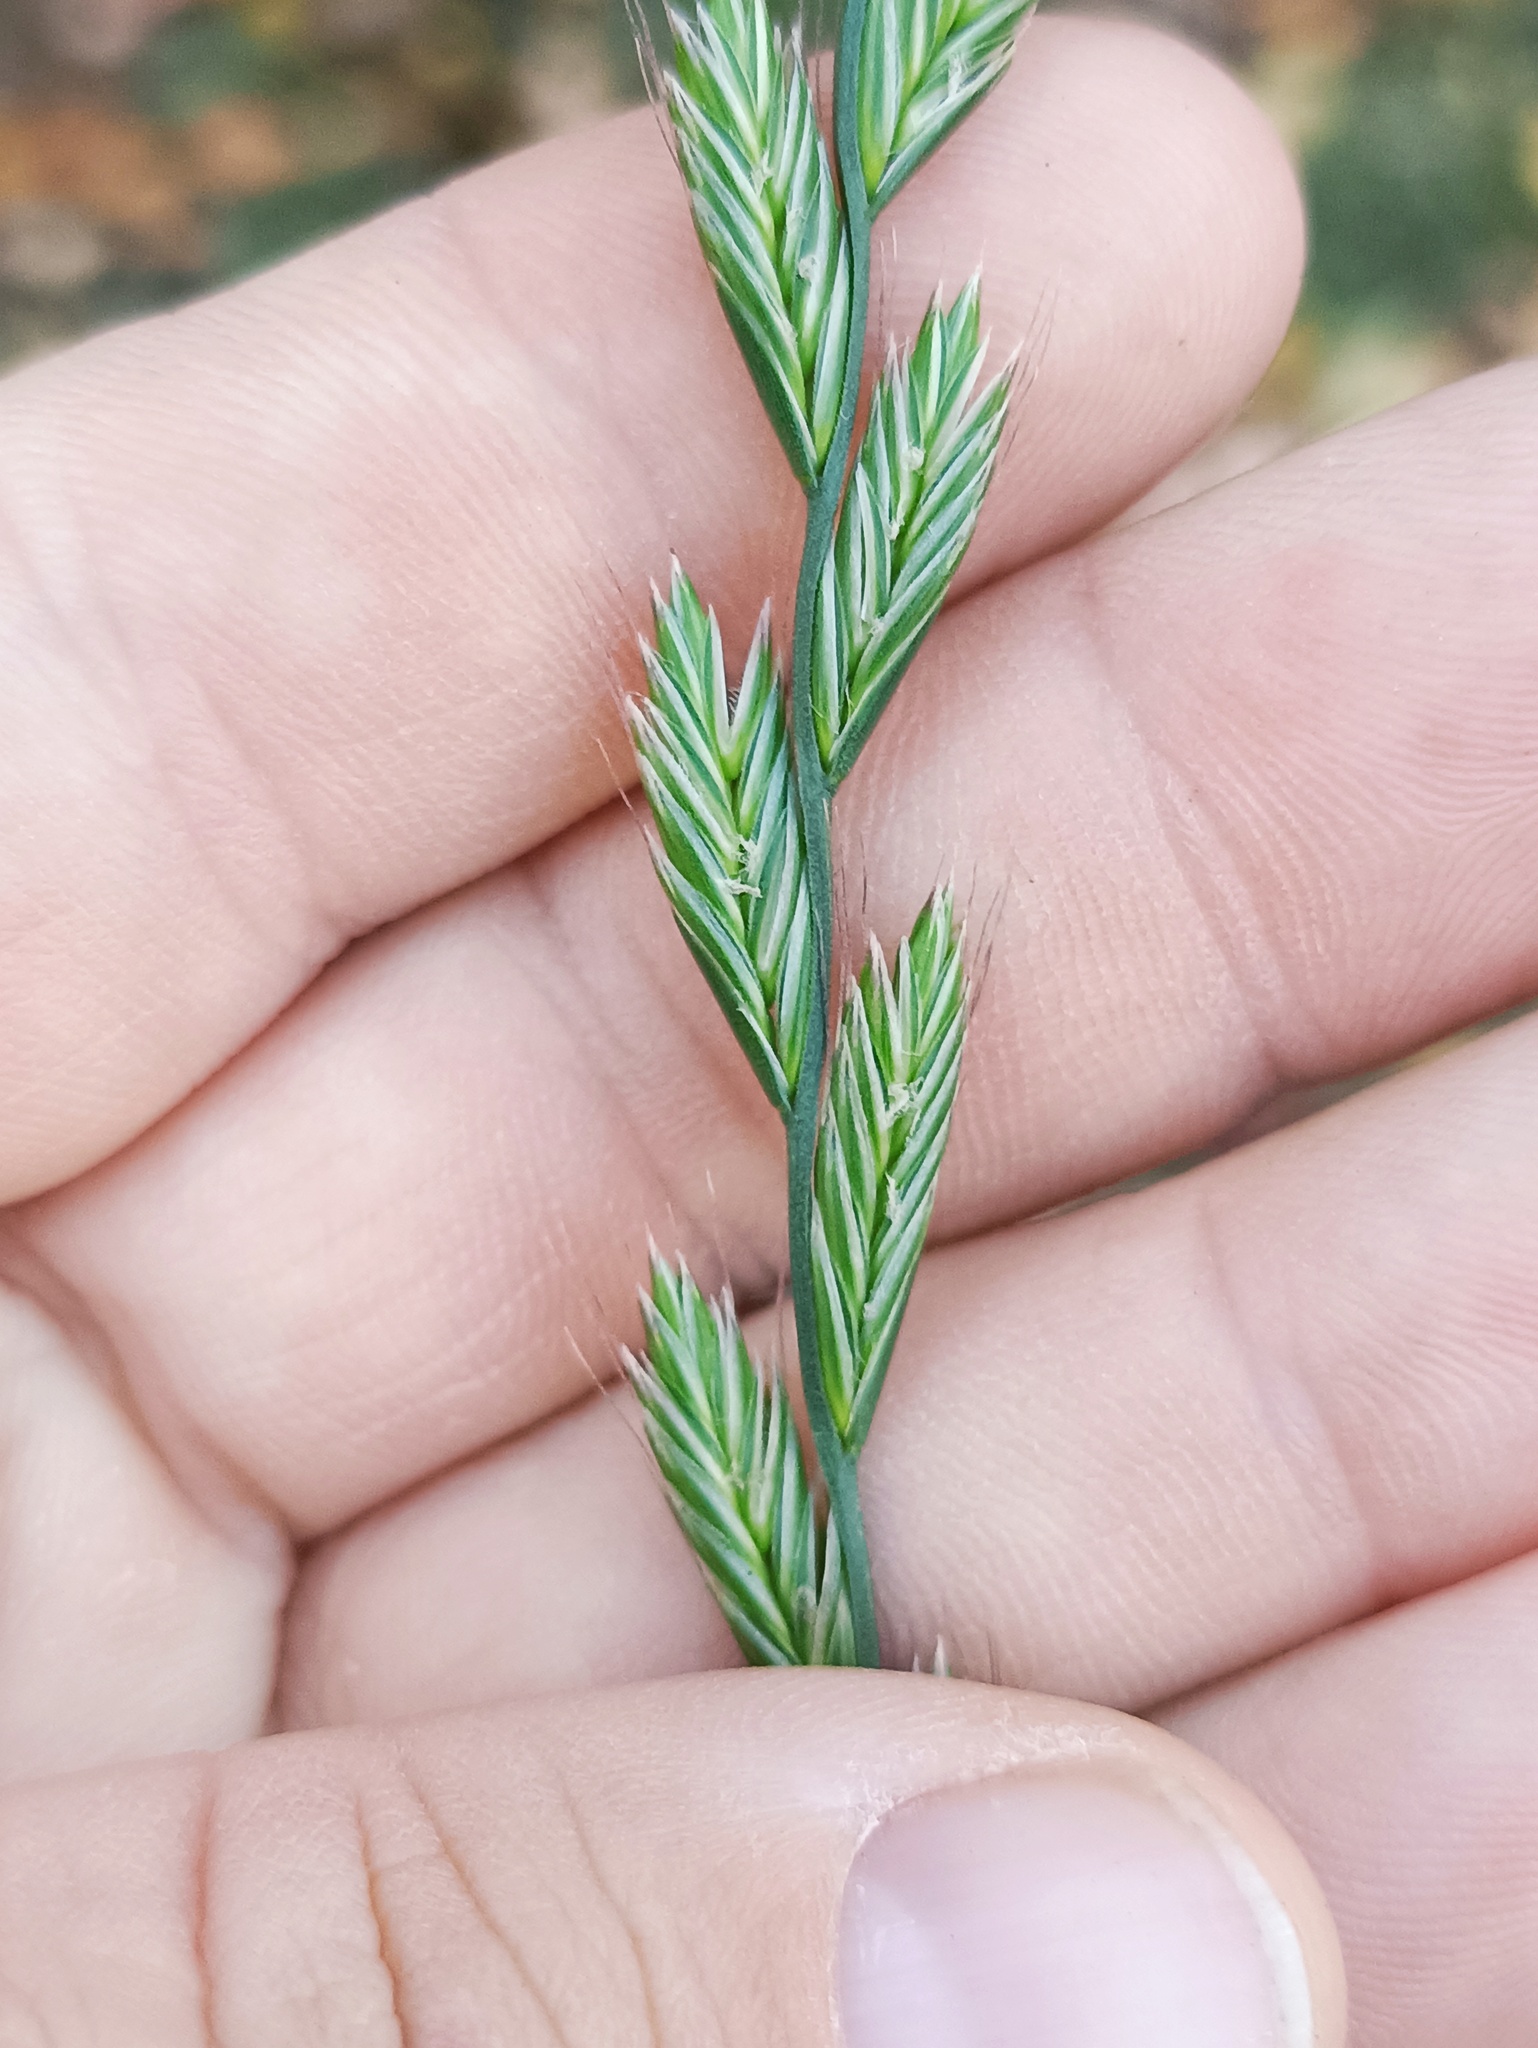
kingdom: Plantae
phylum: Tracheophyta
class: Liliopsida
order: Poales
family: Poaceae
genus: Lolium
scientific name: Lolium multiflorum
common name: Annual ryegrass
